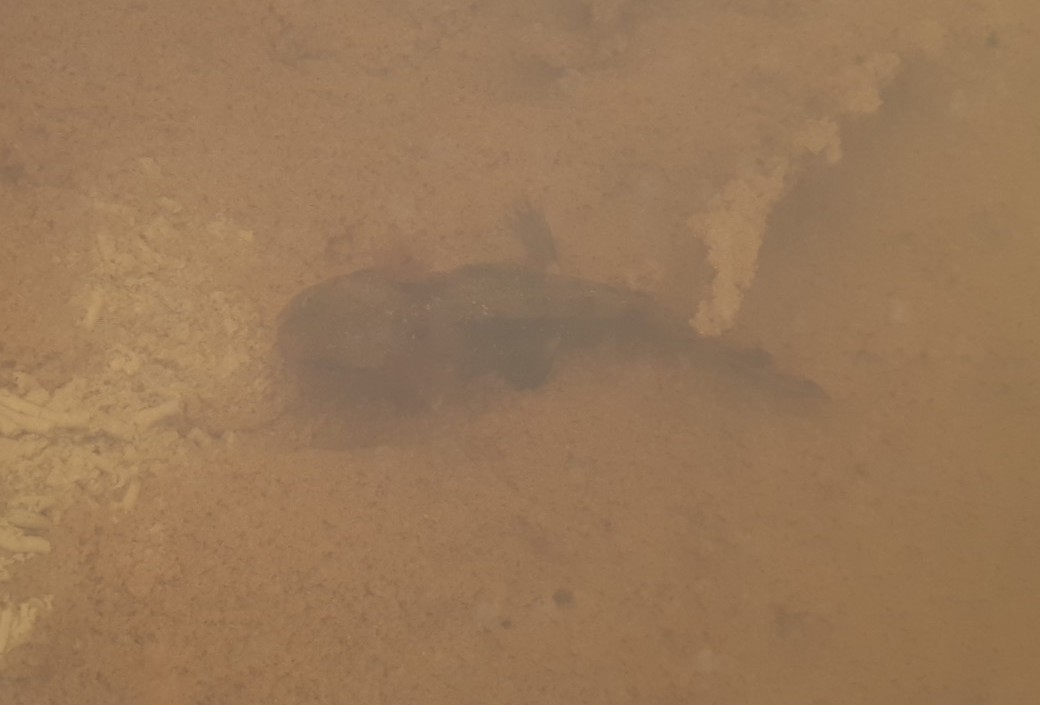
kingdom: Animalia
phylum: Chordata
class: Amphibia
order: Caudata
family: Salamandridae
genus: Salamandra
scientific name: Salamandra salamandra
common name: Fire salamander
